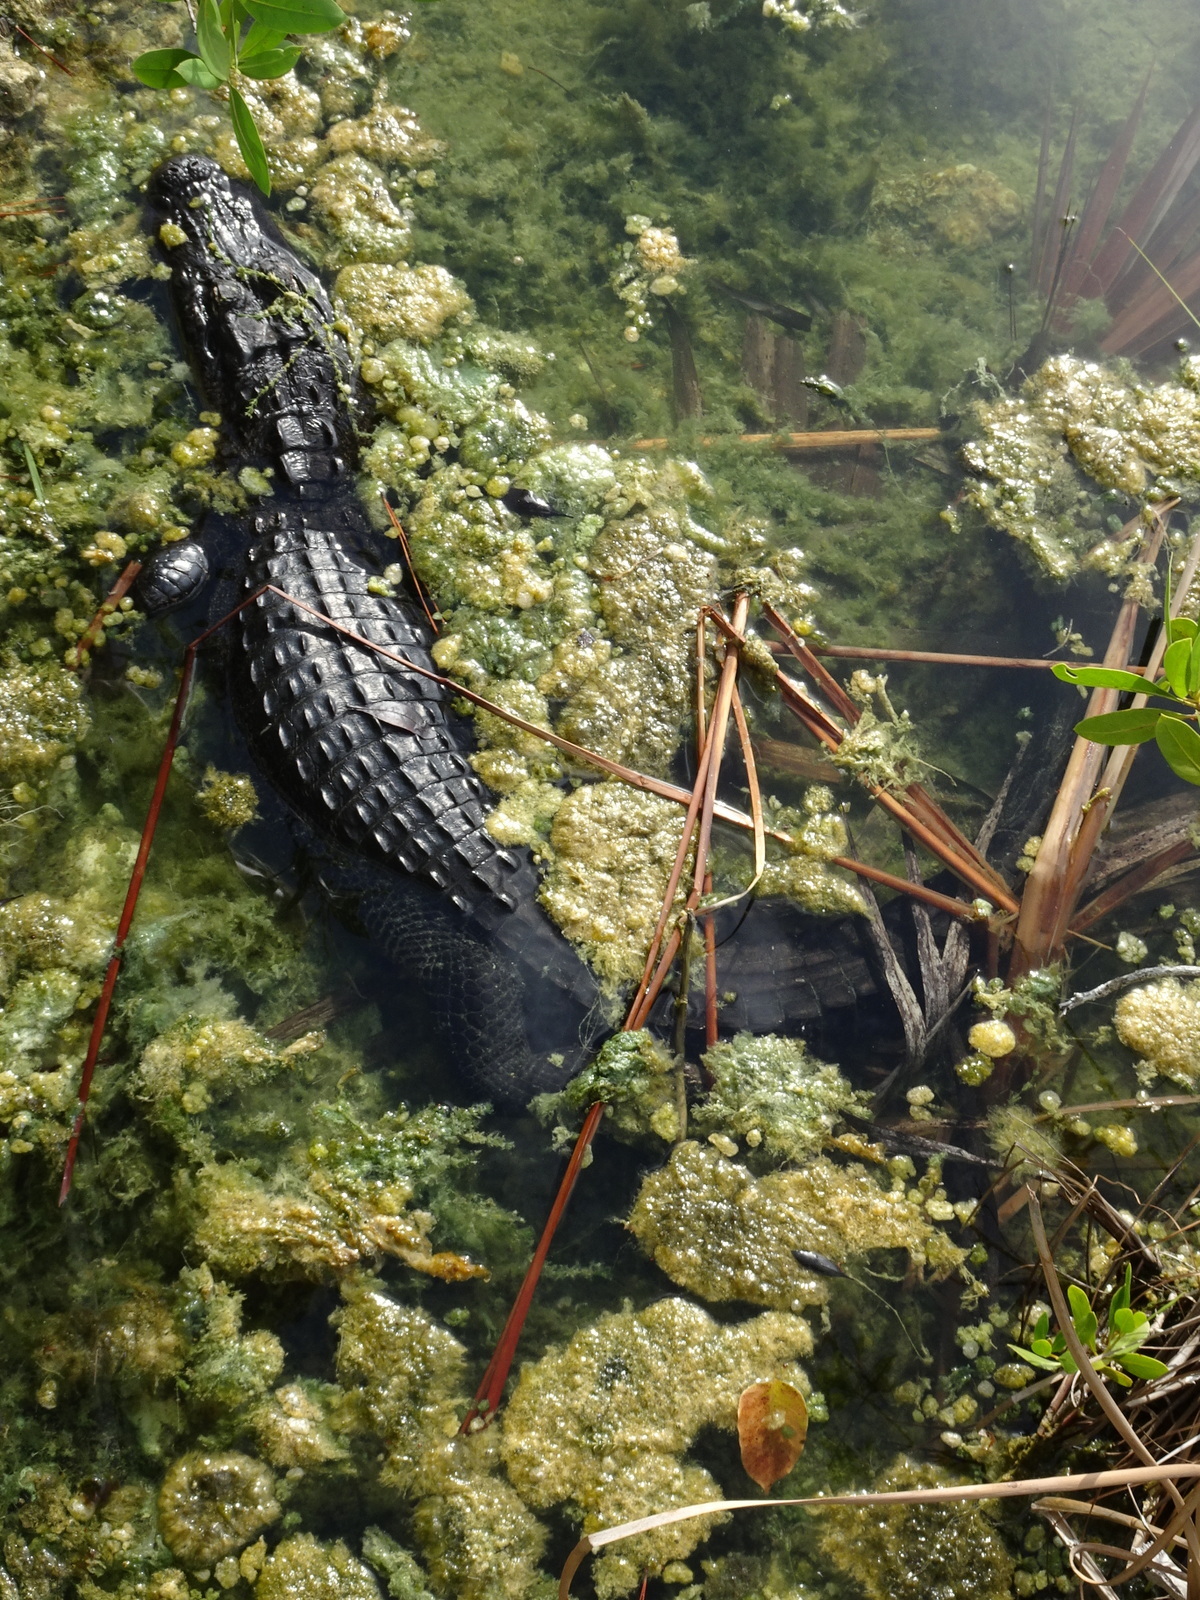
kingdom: Animalia
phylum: Chordata
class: Crocodylia
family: Alligatoridae
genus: Alligator
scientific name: Alligator mississippiensis
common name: American alligator
